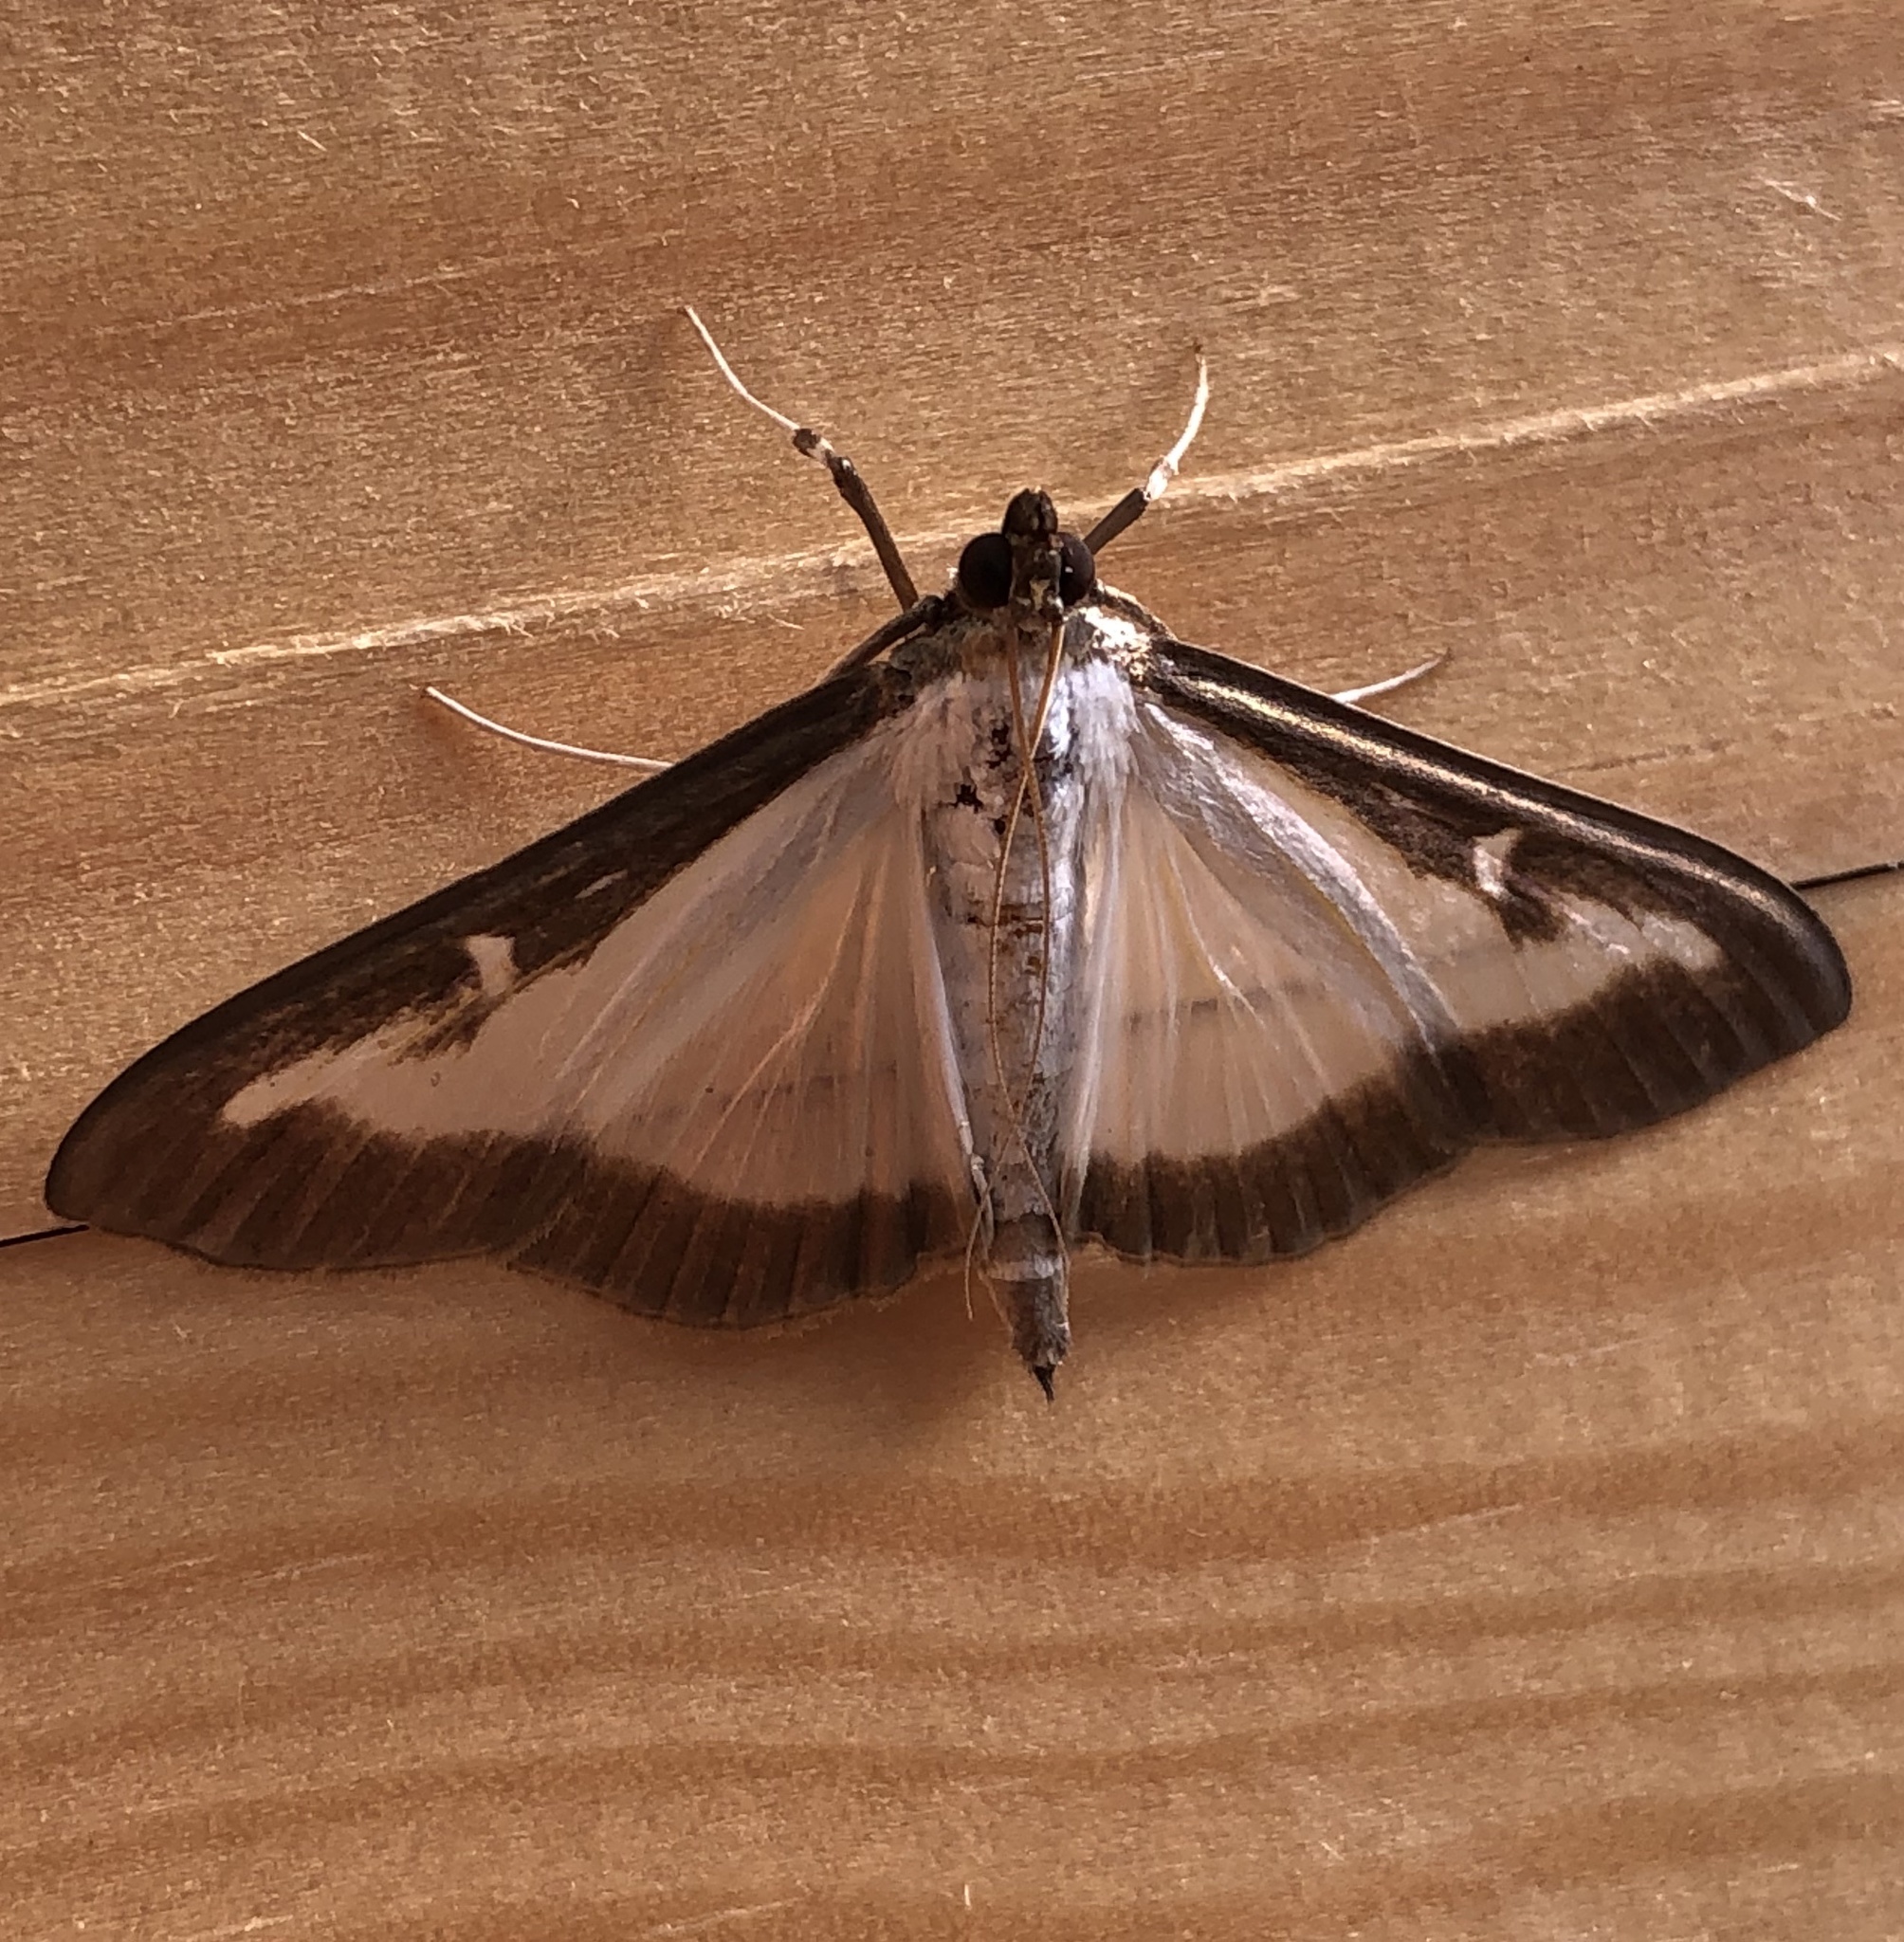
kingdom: Animalia
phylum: Arthropoda
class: Insecta
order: Lepidoptera
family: Crambidae
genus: Cydalima
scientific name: Cydalima perspectalis
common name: Box tree moth
